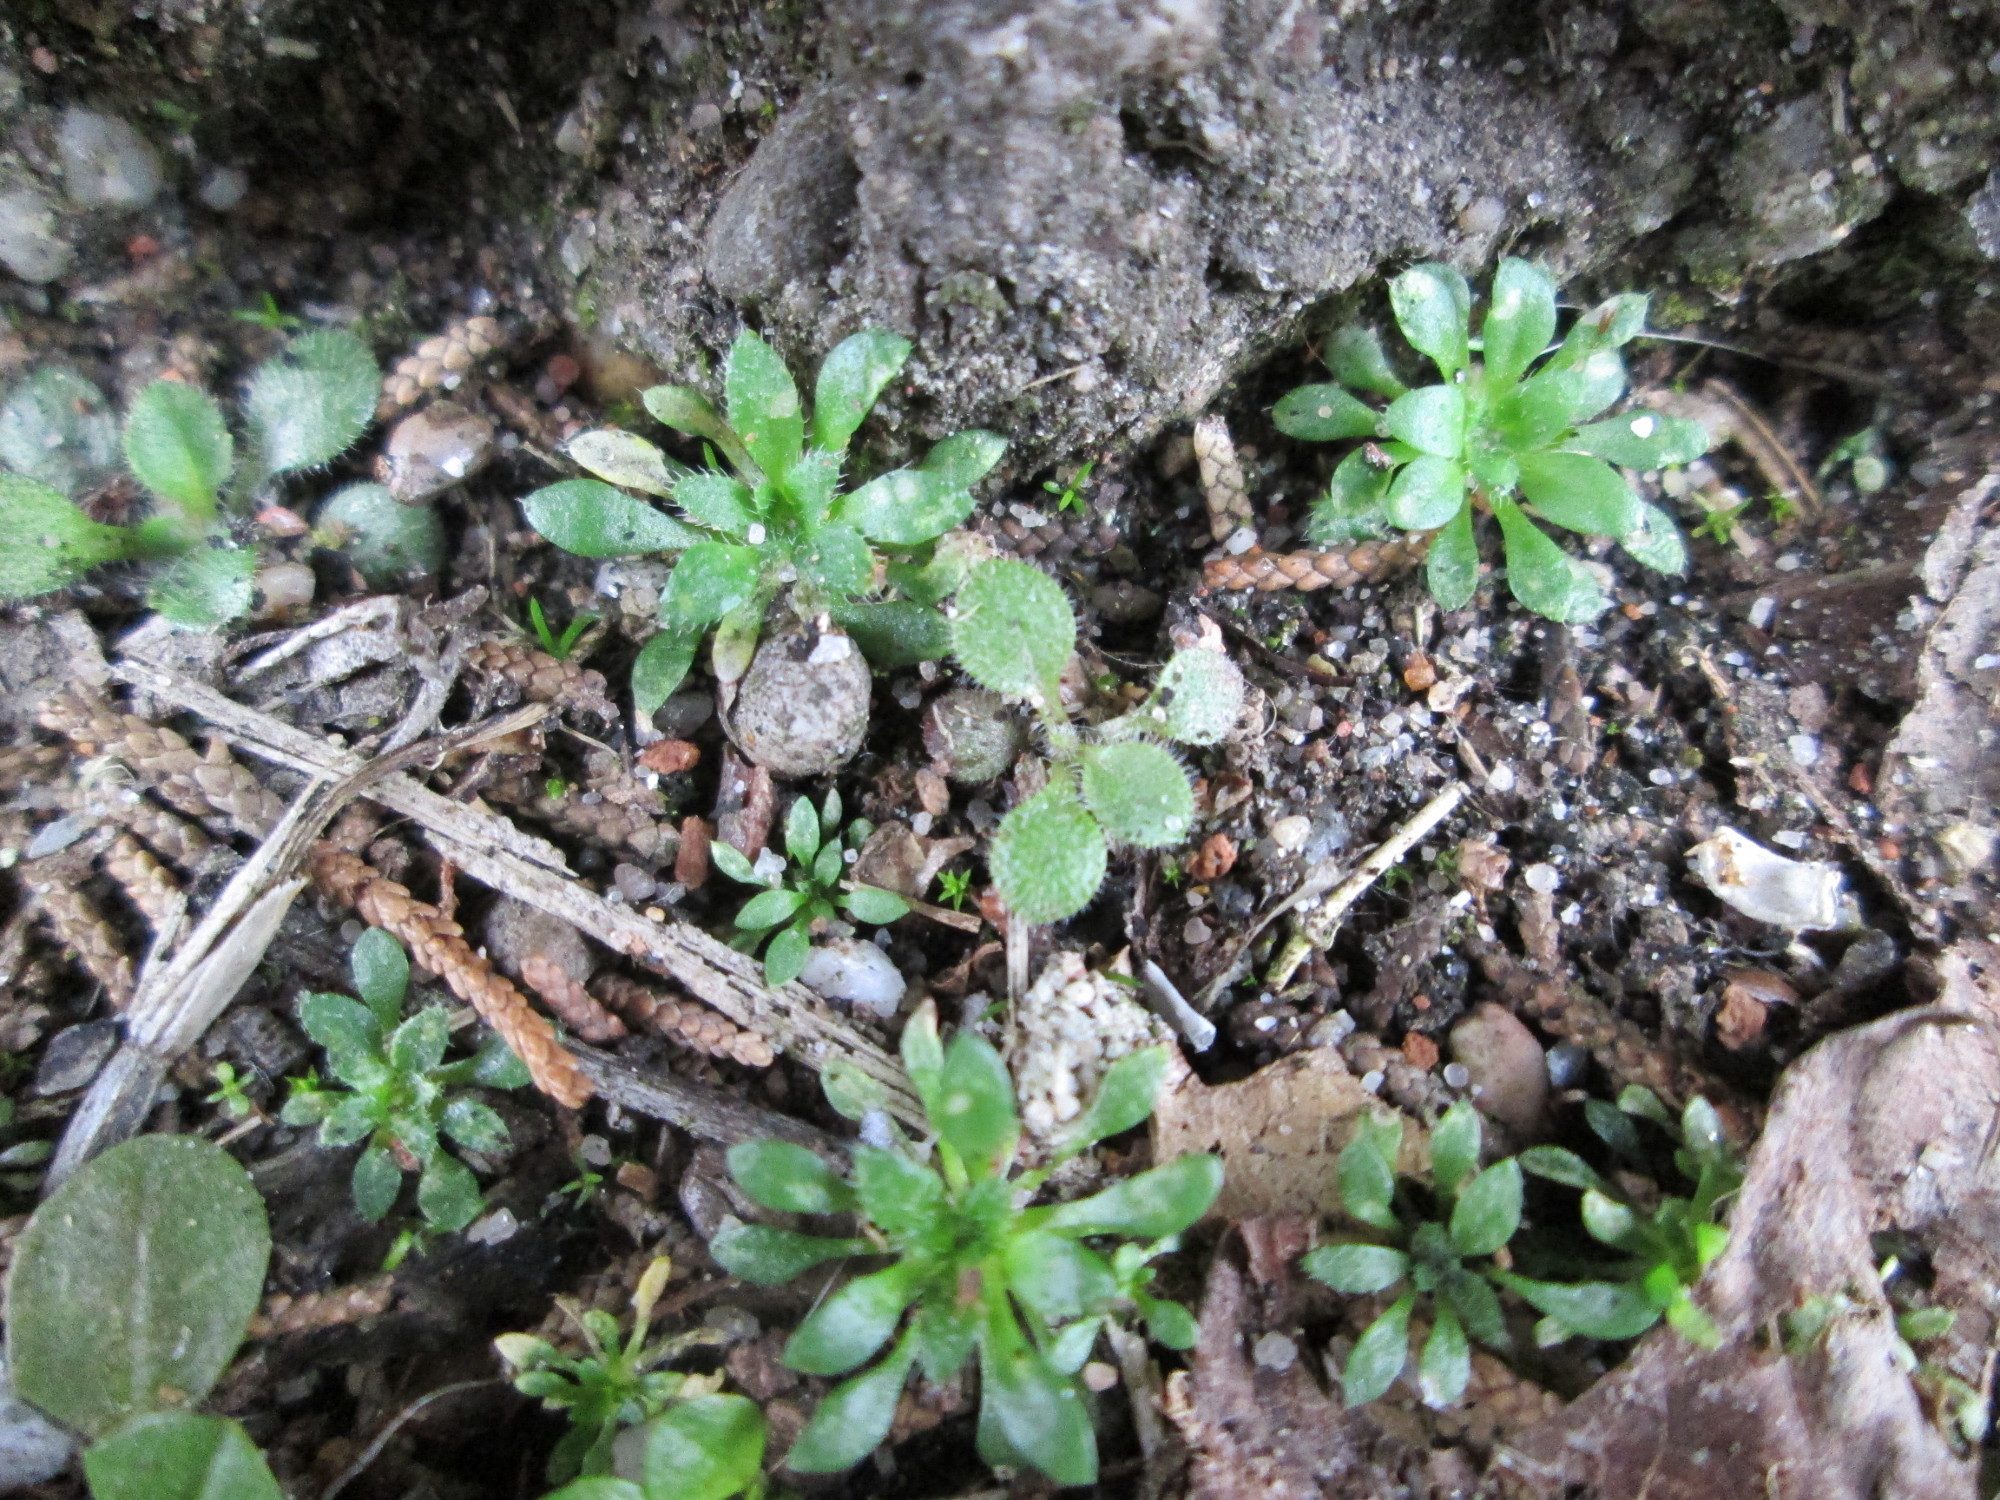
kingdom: Plantae
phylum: Tracheophyta
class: Magnoliopsida
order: Brassicales
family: Brassicaceae
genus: Draba
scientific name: Draba verna
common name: Spring draba
